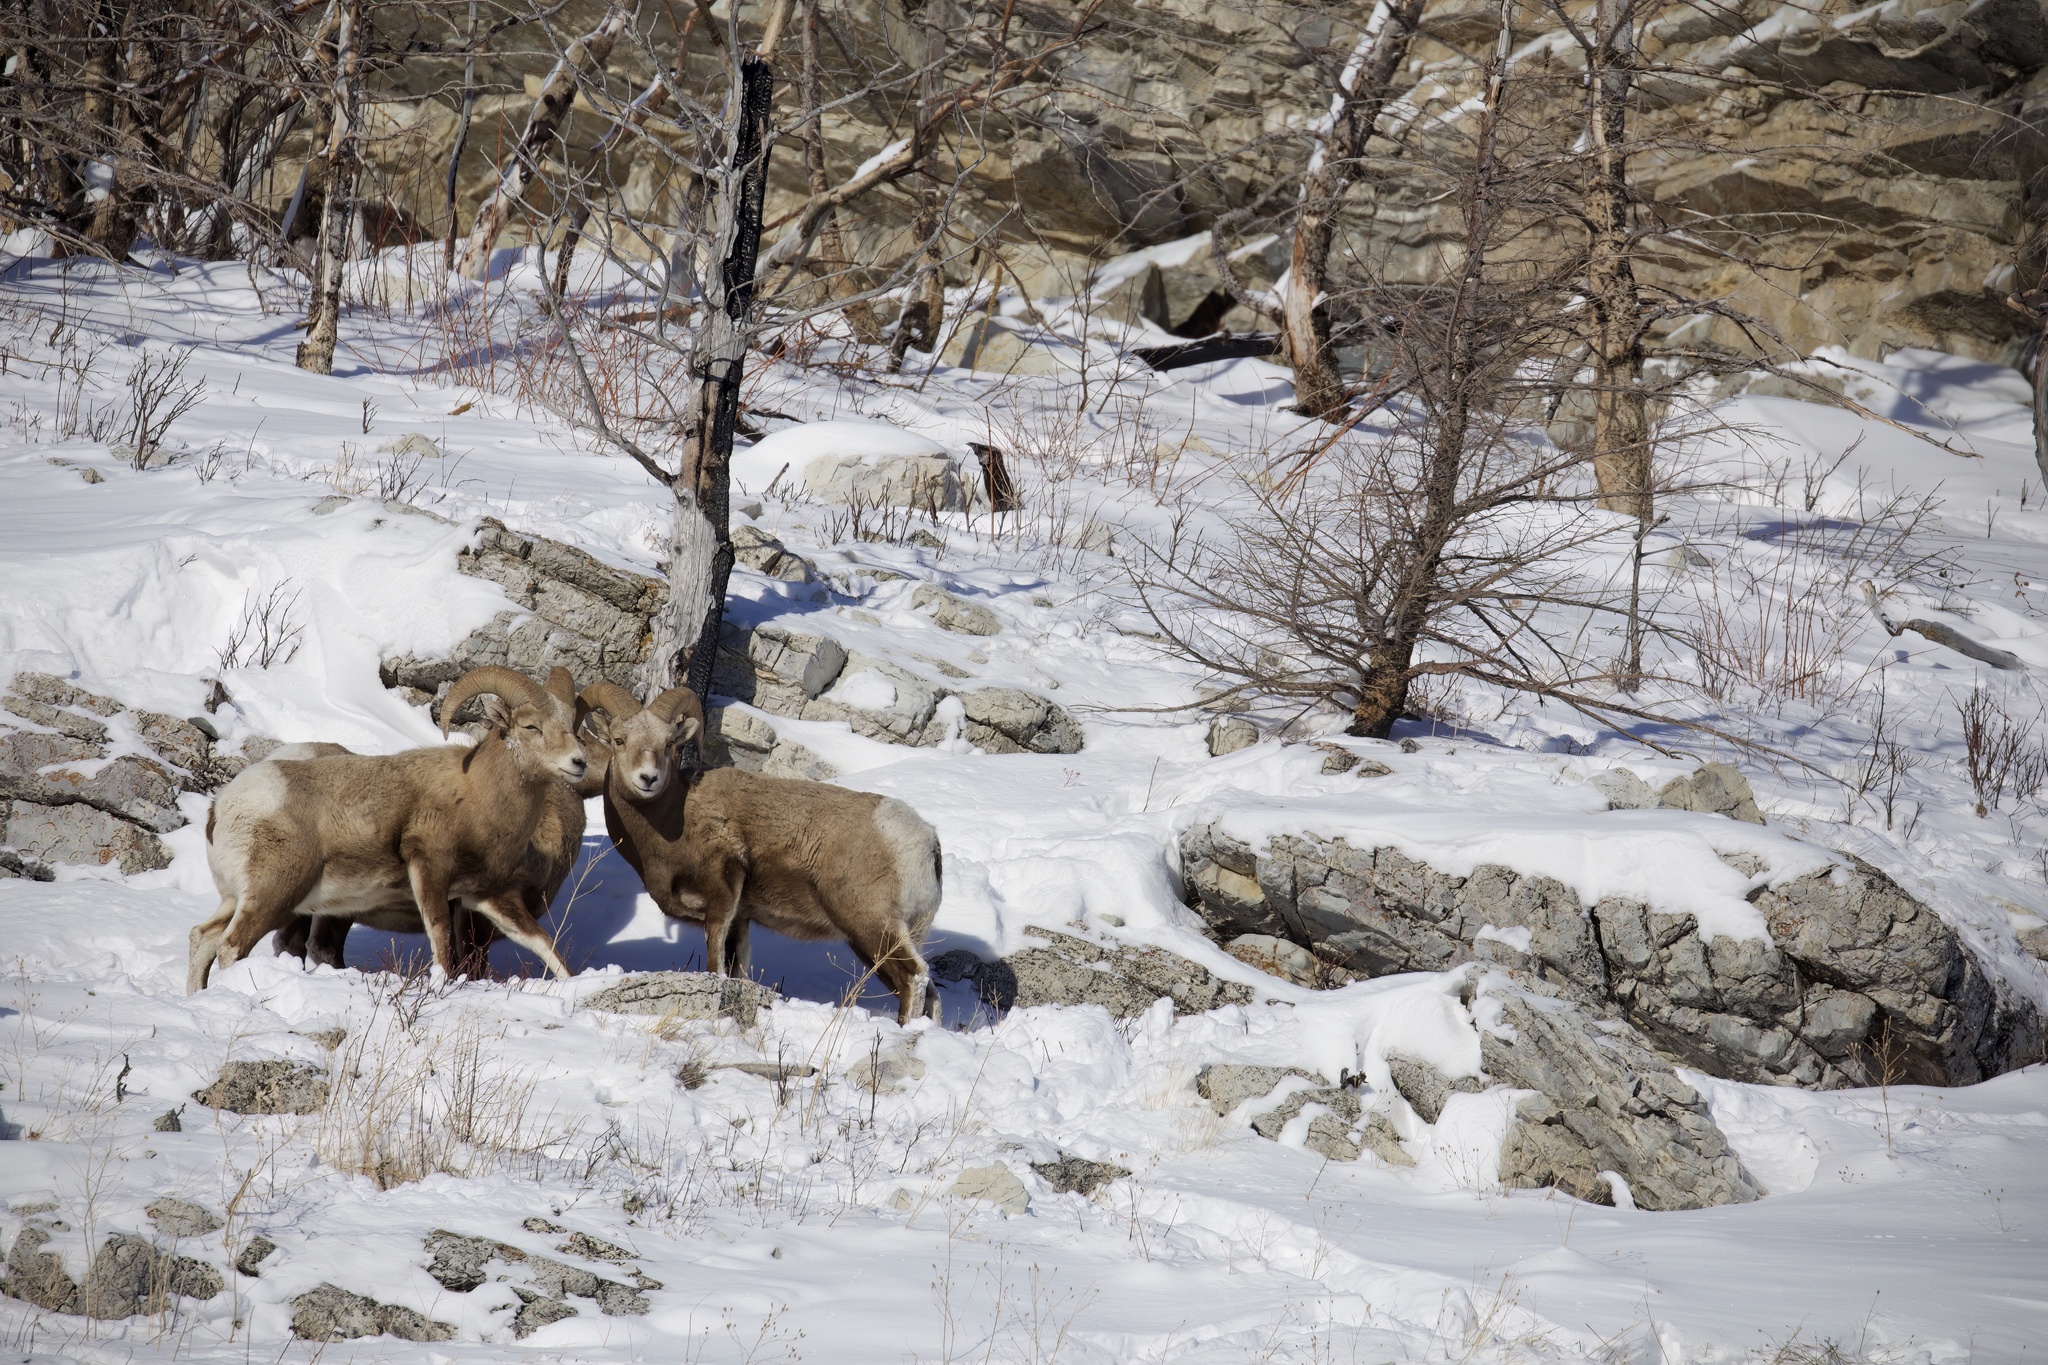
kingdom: Animalia
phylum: Chordata
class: Mammalia
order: Artiodactyla
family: Bovidae
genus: Ovis
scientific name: Ovis canadensis
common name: Bighorn sheep
